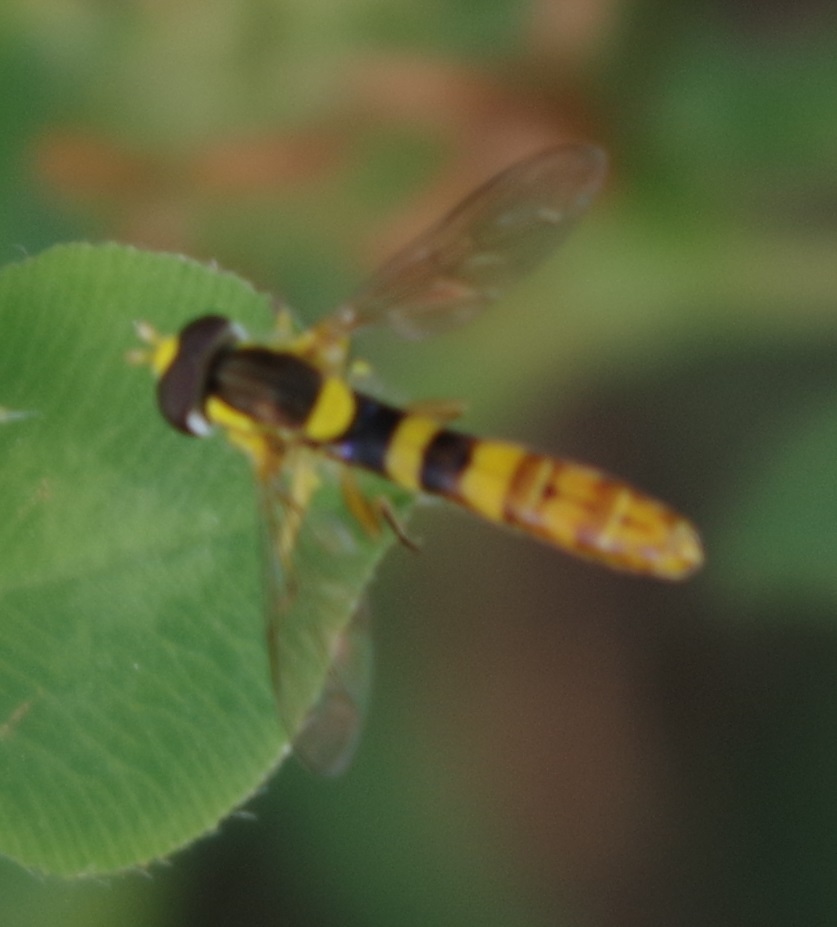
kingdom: Animalia
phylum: Arthropoda
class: Insecta
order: Diptera
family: Syrphidae
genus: Sphaerophoria
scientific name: Sphaerophoria scripta
